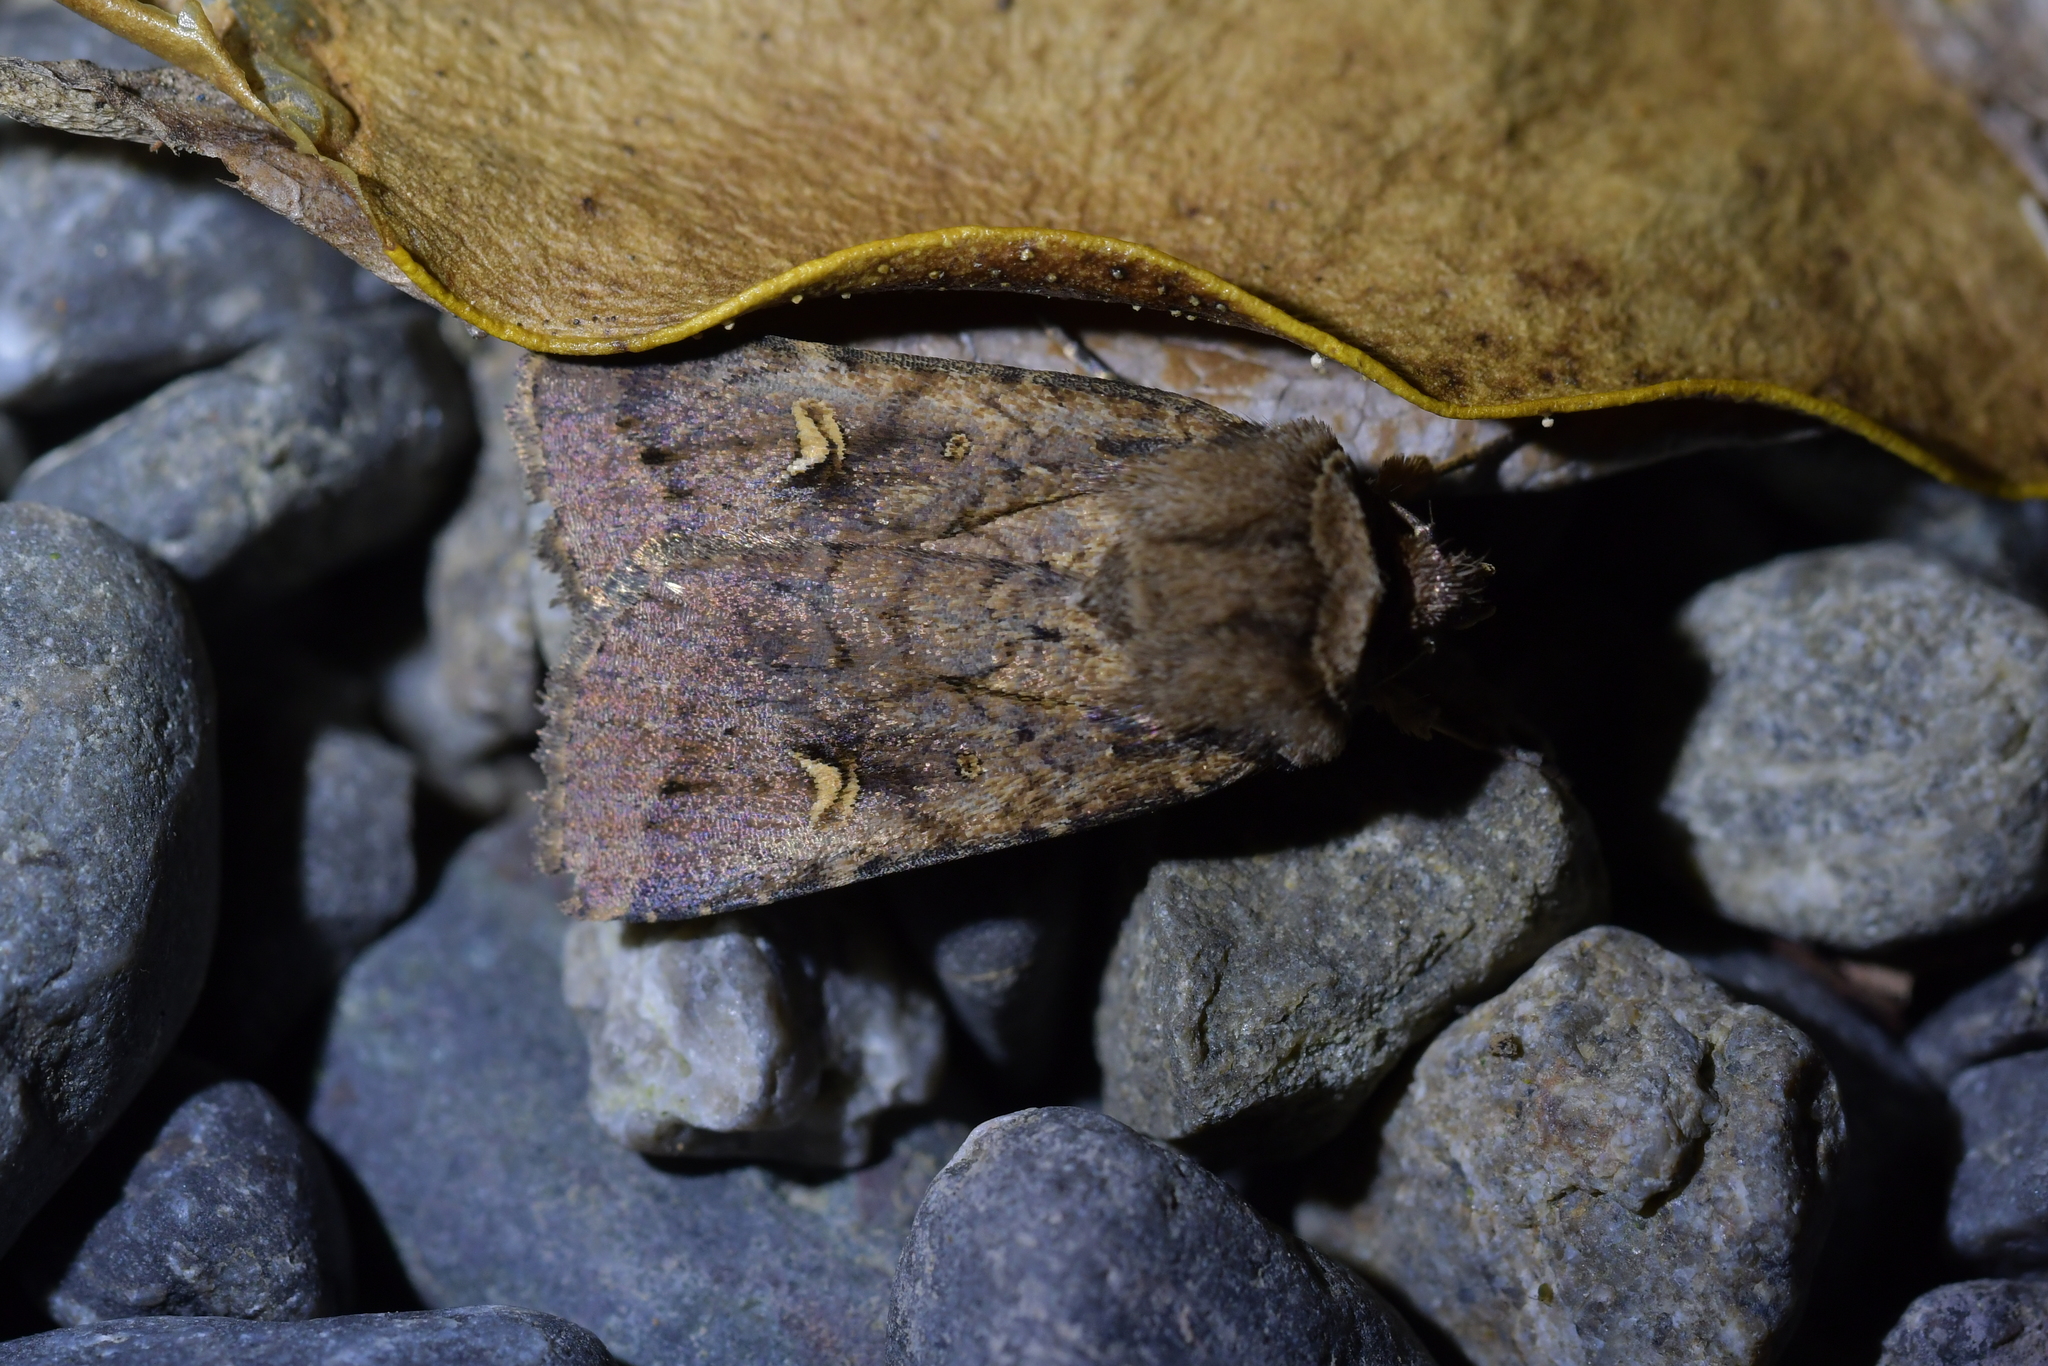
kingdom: Animalia
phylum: Arthropoda
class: Insecta
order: Lepidoptera
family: Noctuidae
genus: Proteuxoa
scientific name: Proteuxoa tetronycha
